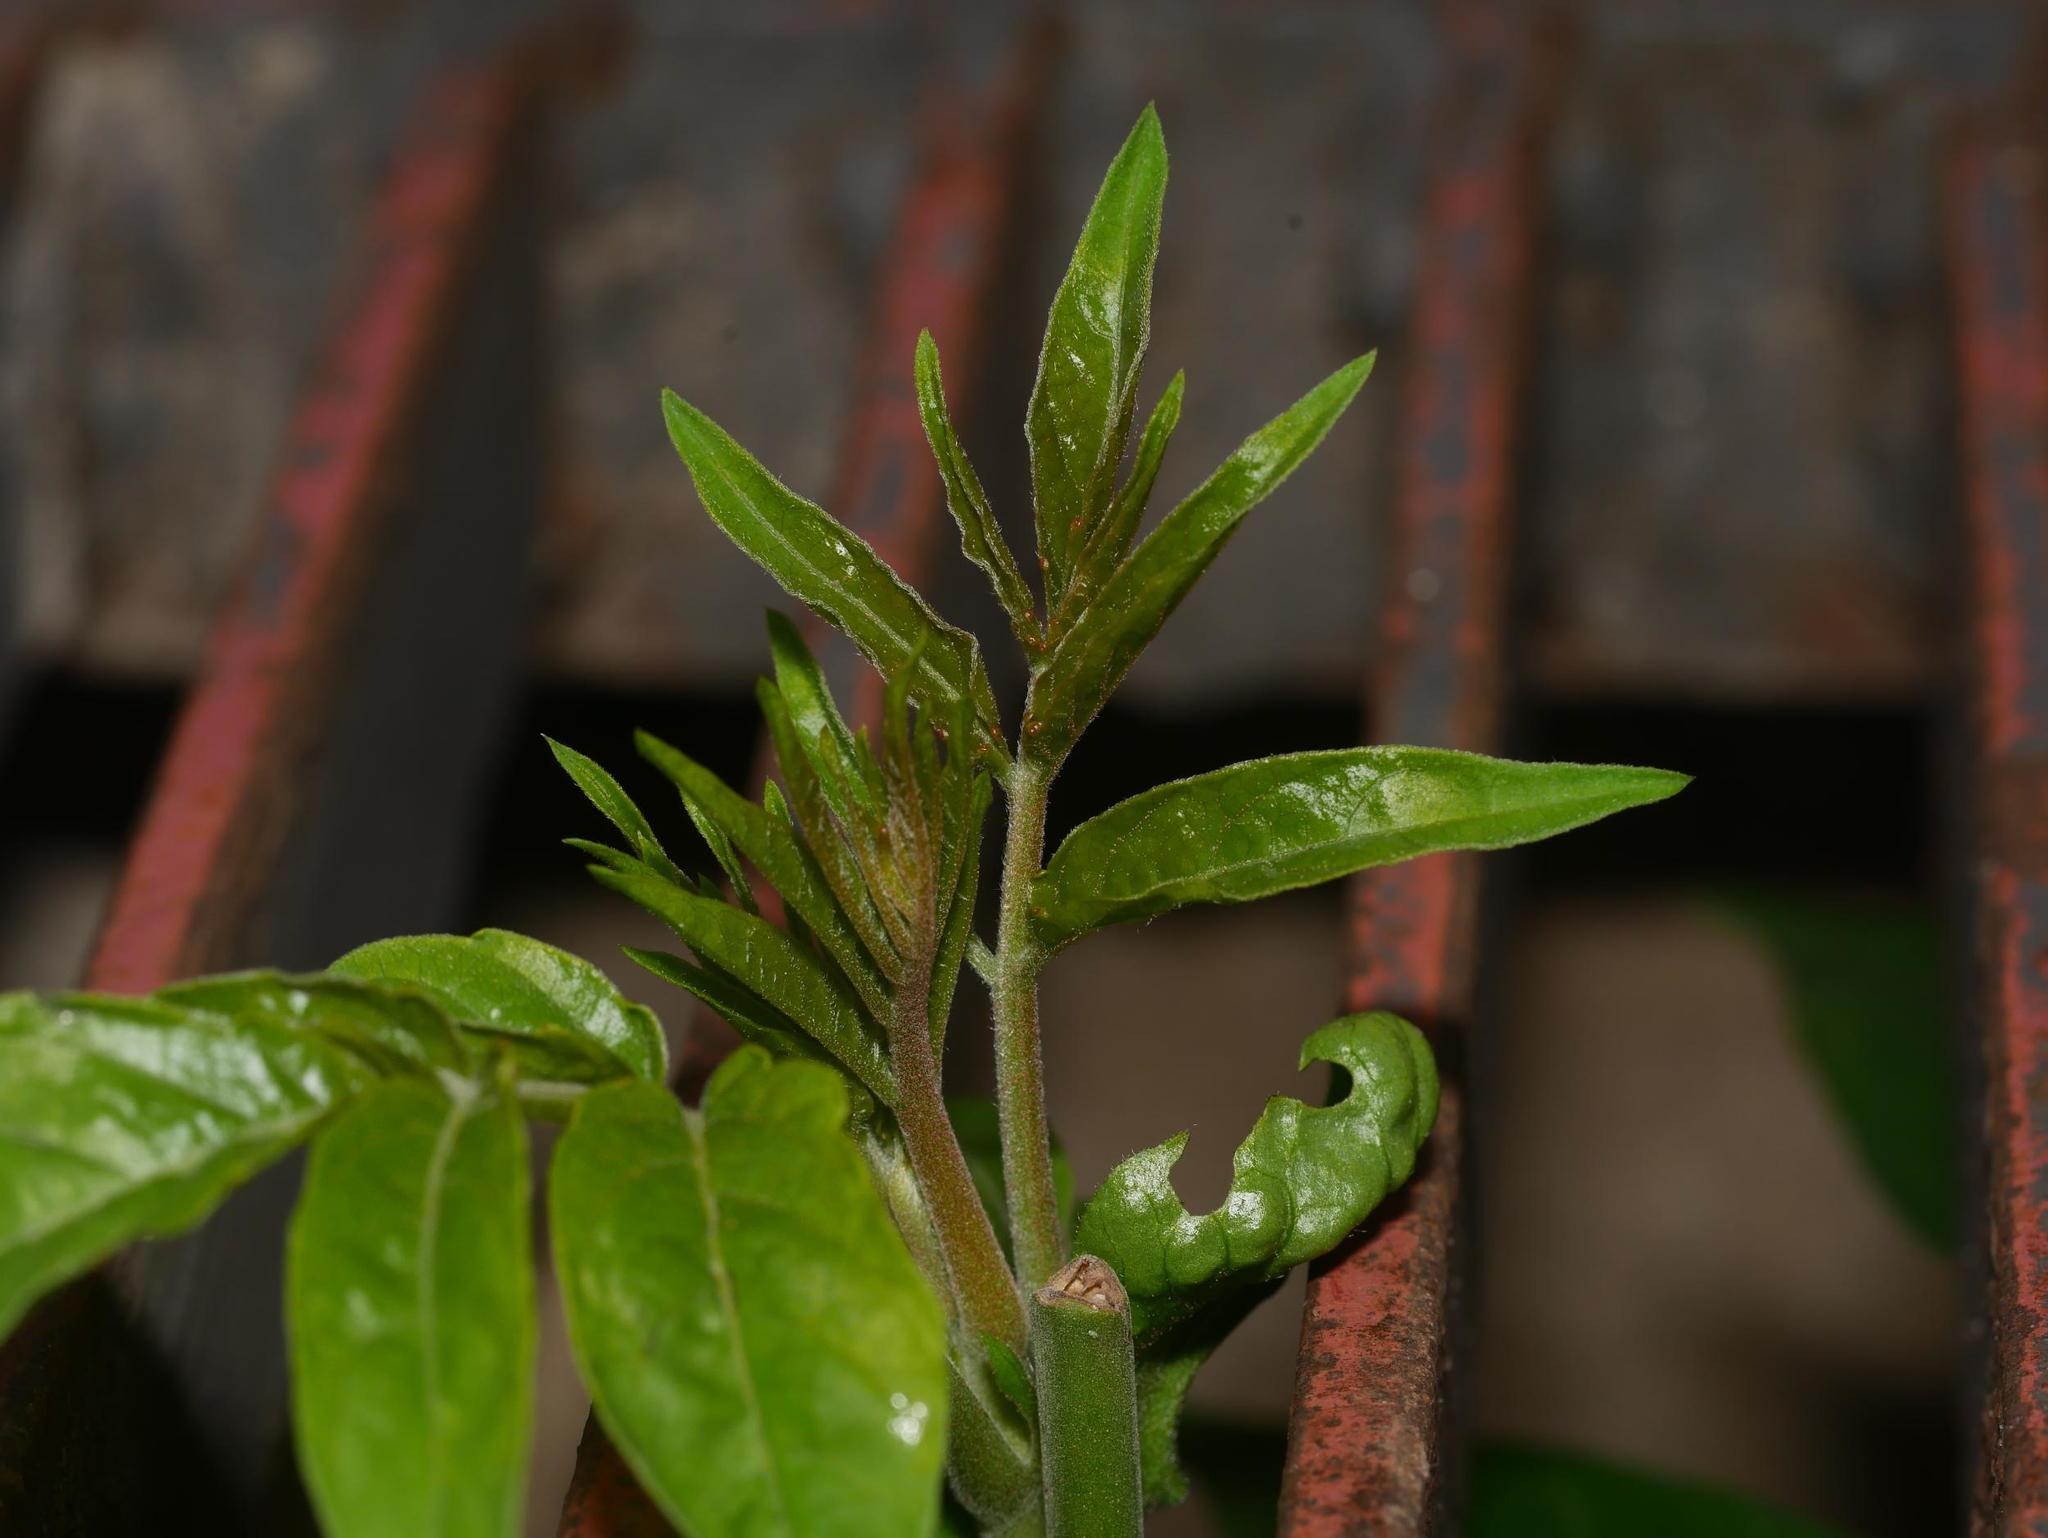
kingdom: Plantae
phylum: Tracheophyta
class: Magnoliopsida
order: Sapindales
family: Simaroubaceae
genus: Ailanthus
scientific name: Ailanthus altissima
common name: Tree-of-heaven
